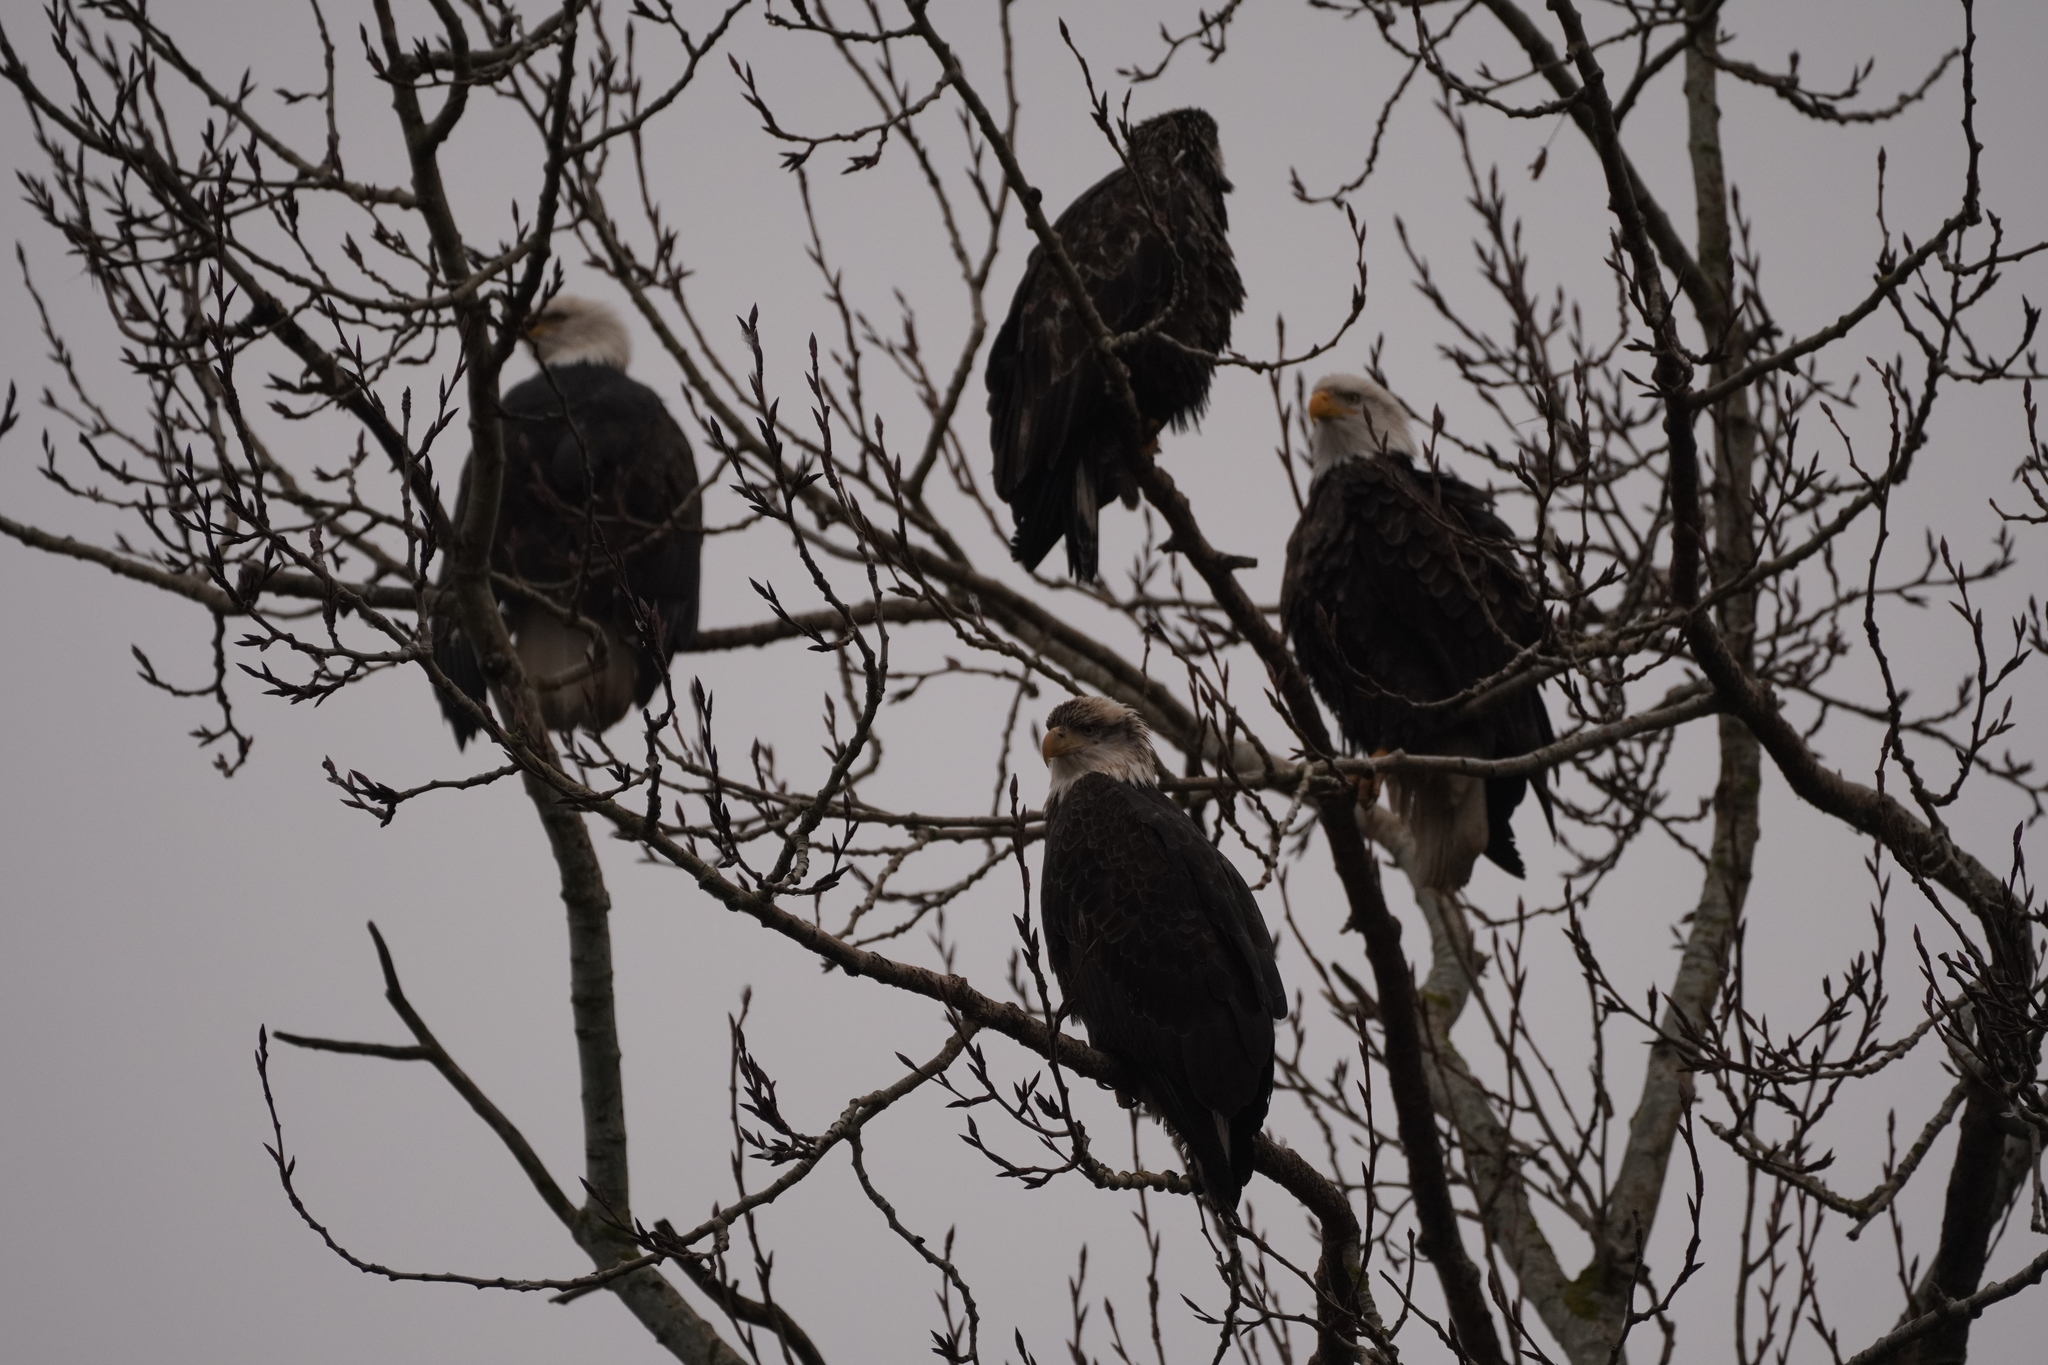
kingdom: Animalia
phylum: Chordata
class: Aves
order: Accipitriformes
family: Accipitridae
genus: Haliaeetus
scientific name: Haliaeetus leucocephalus
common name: Bald eagle
